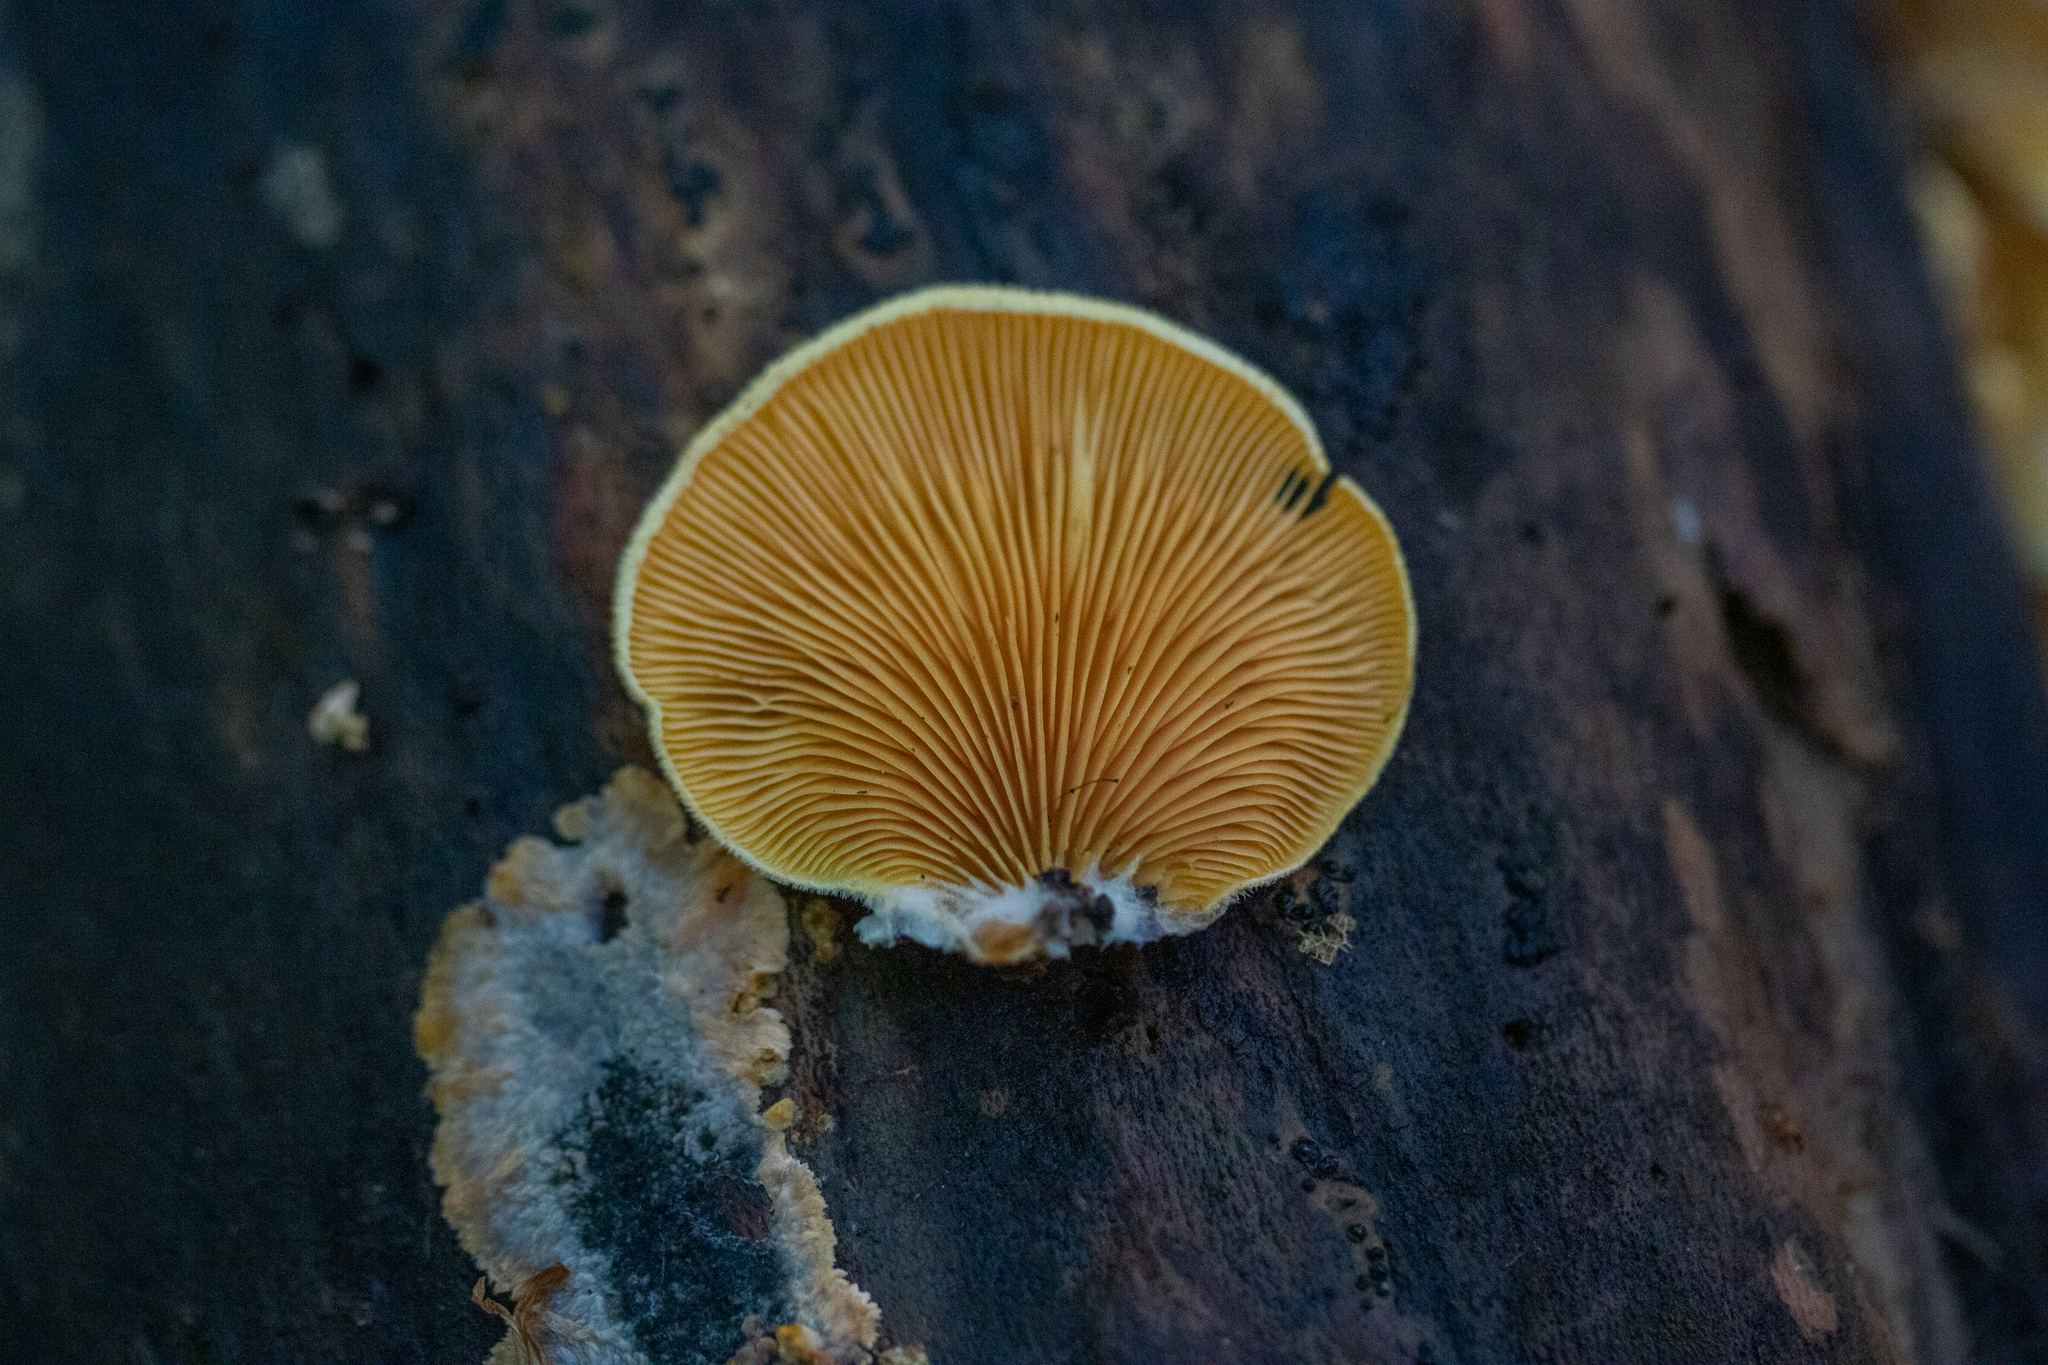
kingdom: Fungi
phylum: Basidiomycota
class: Agaricomycetes
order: Agaricales
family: Phyllotopsidaceae
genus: Phyllotopsis
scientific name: Phyllotopsis nidulans
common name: Orange mock oyster
